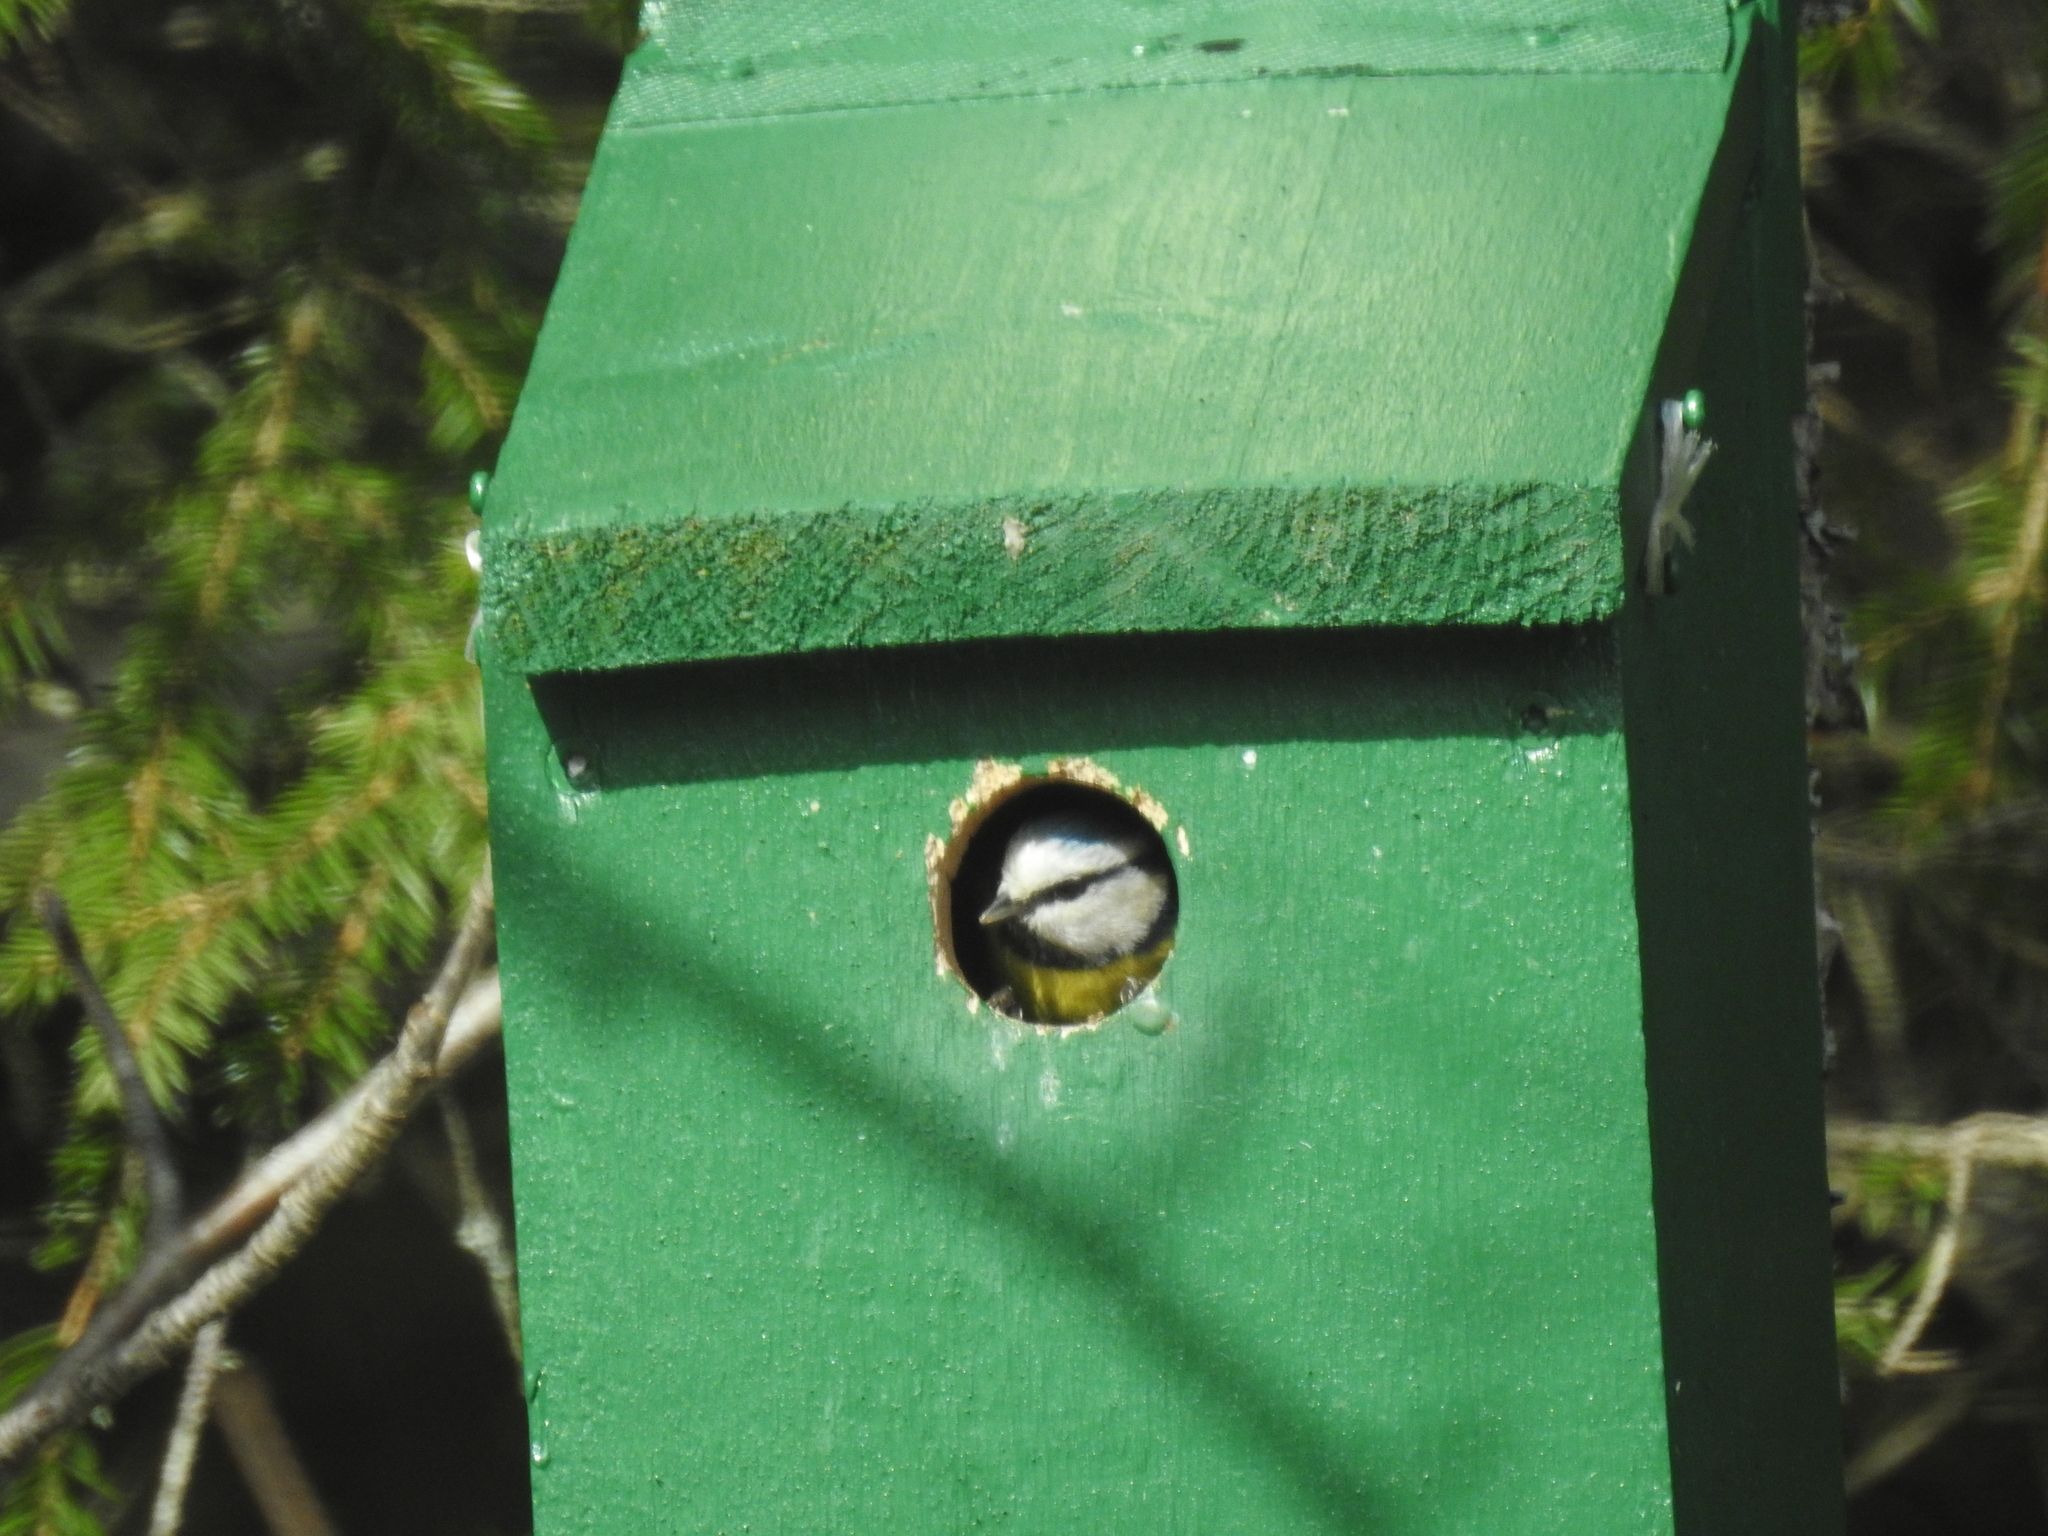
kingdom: Animalia
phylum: Chordata
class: Aves
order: Passeriformes
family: Paridae
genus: Cyanistes
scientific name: Cyanistes caeruleus
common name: Eurasian blue tit
